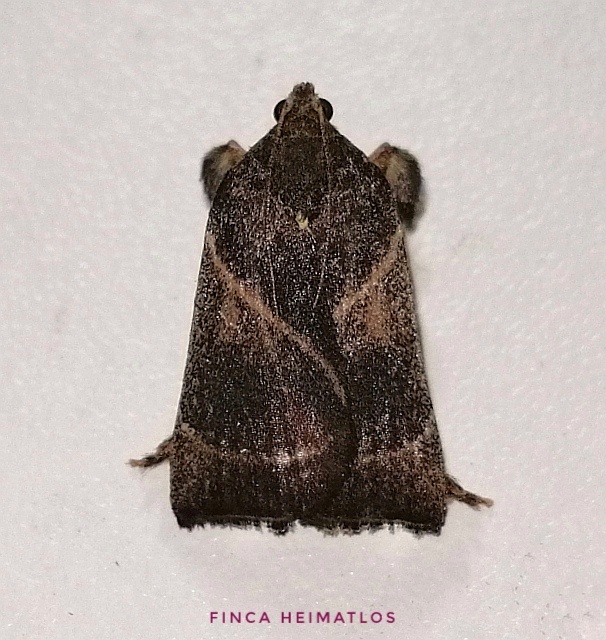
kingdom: Animalia
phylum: Arthropoda
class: Insecta
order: Lepidoptera
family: Pyralidae
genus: Dasycnemia
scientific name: Dasycnemia
